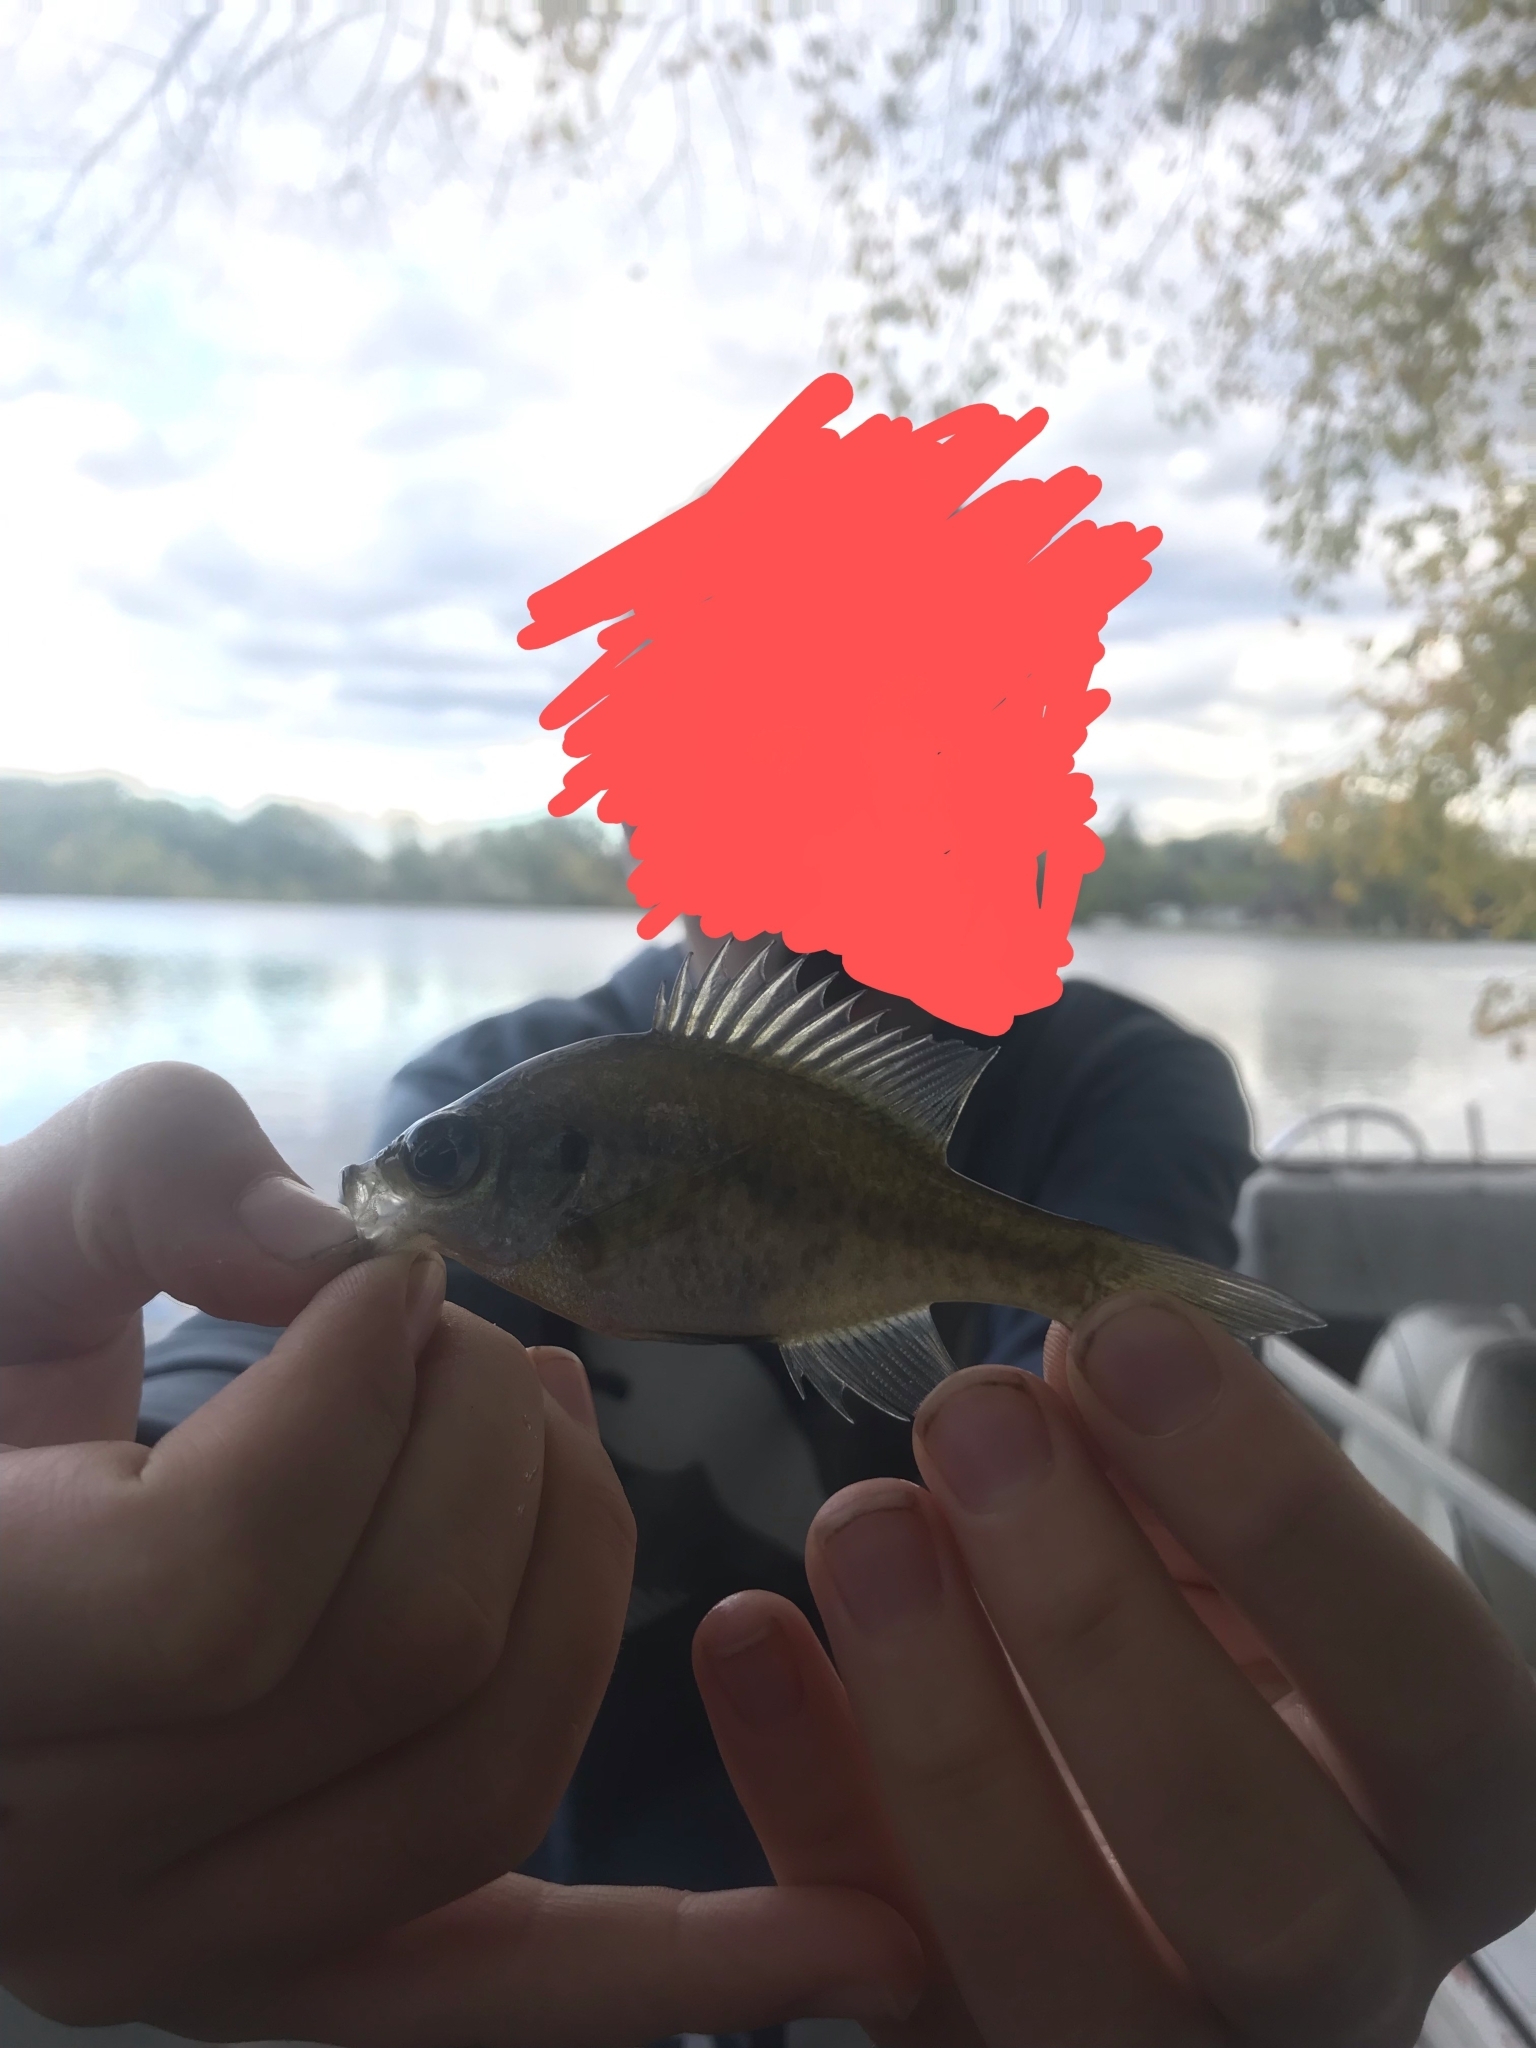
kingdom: Animalia
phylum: Chordata
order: Perciformes
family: Centrarchidae
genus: Lepomis
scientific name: Lepomis macrochirus
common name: Bluegill
